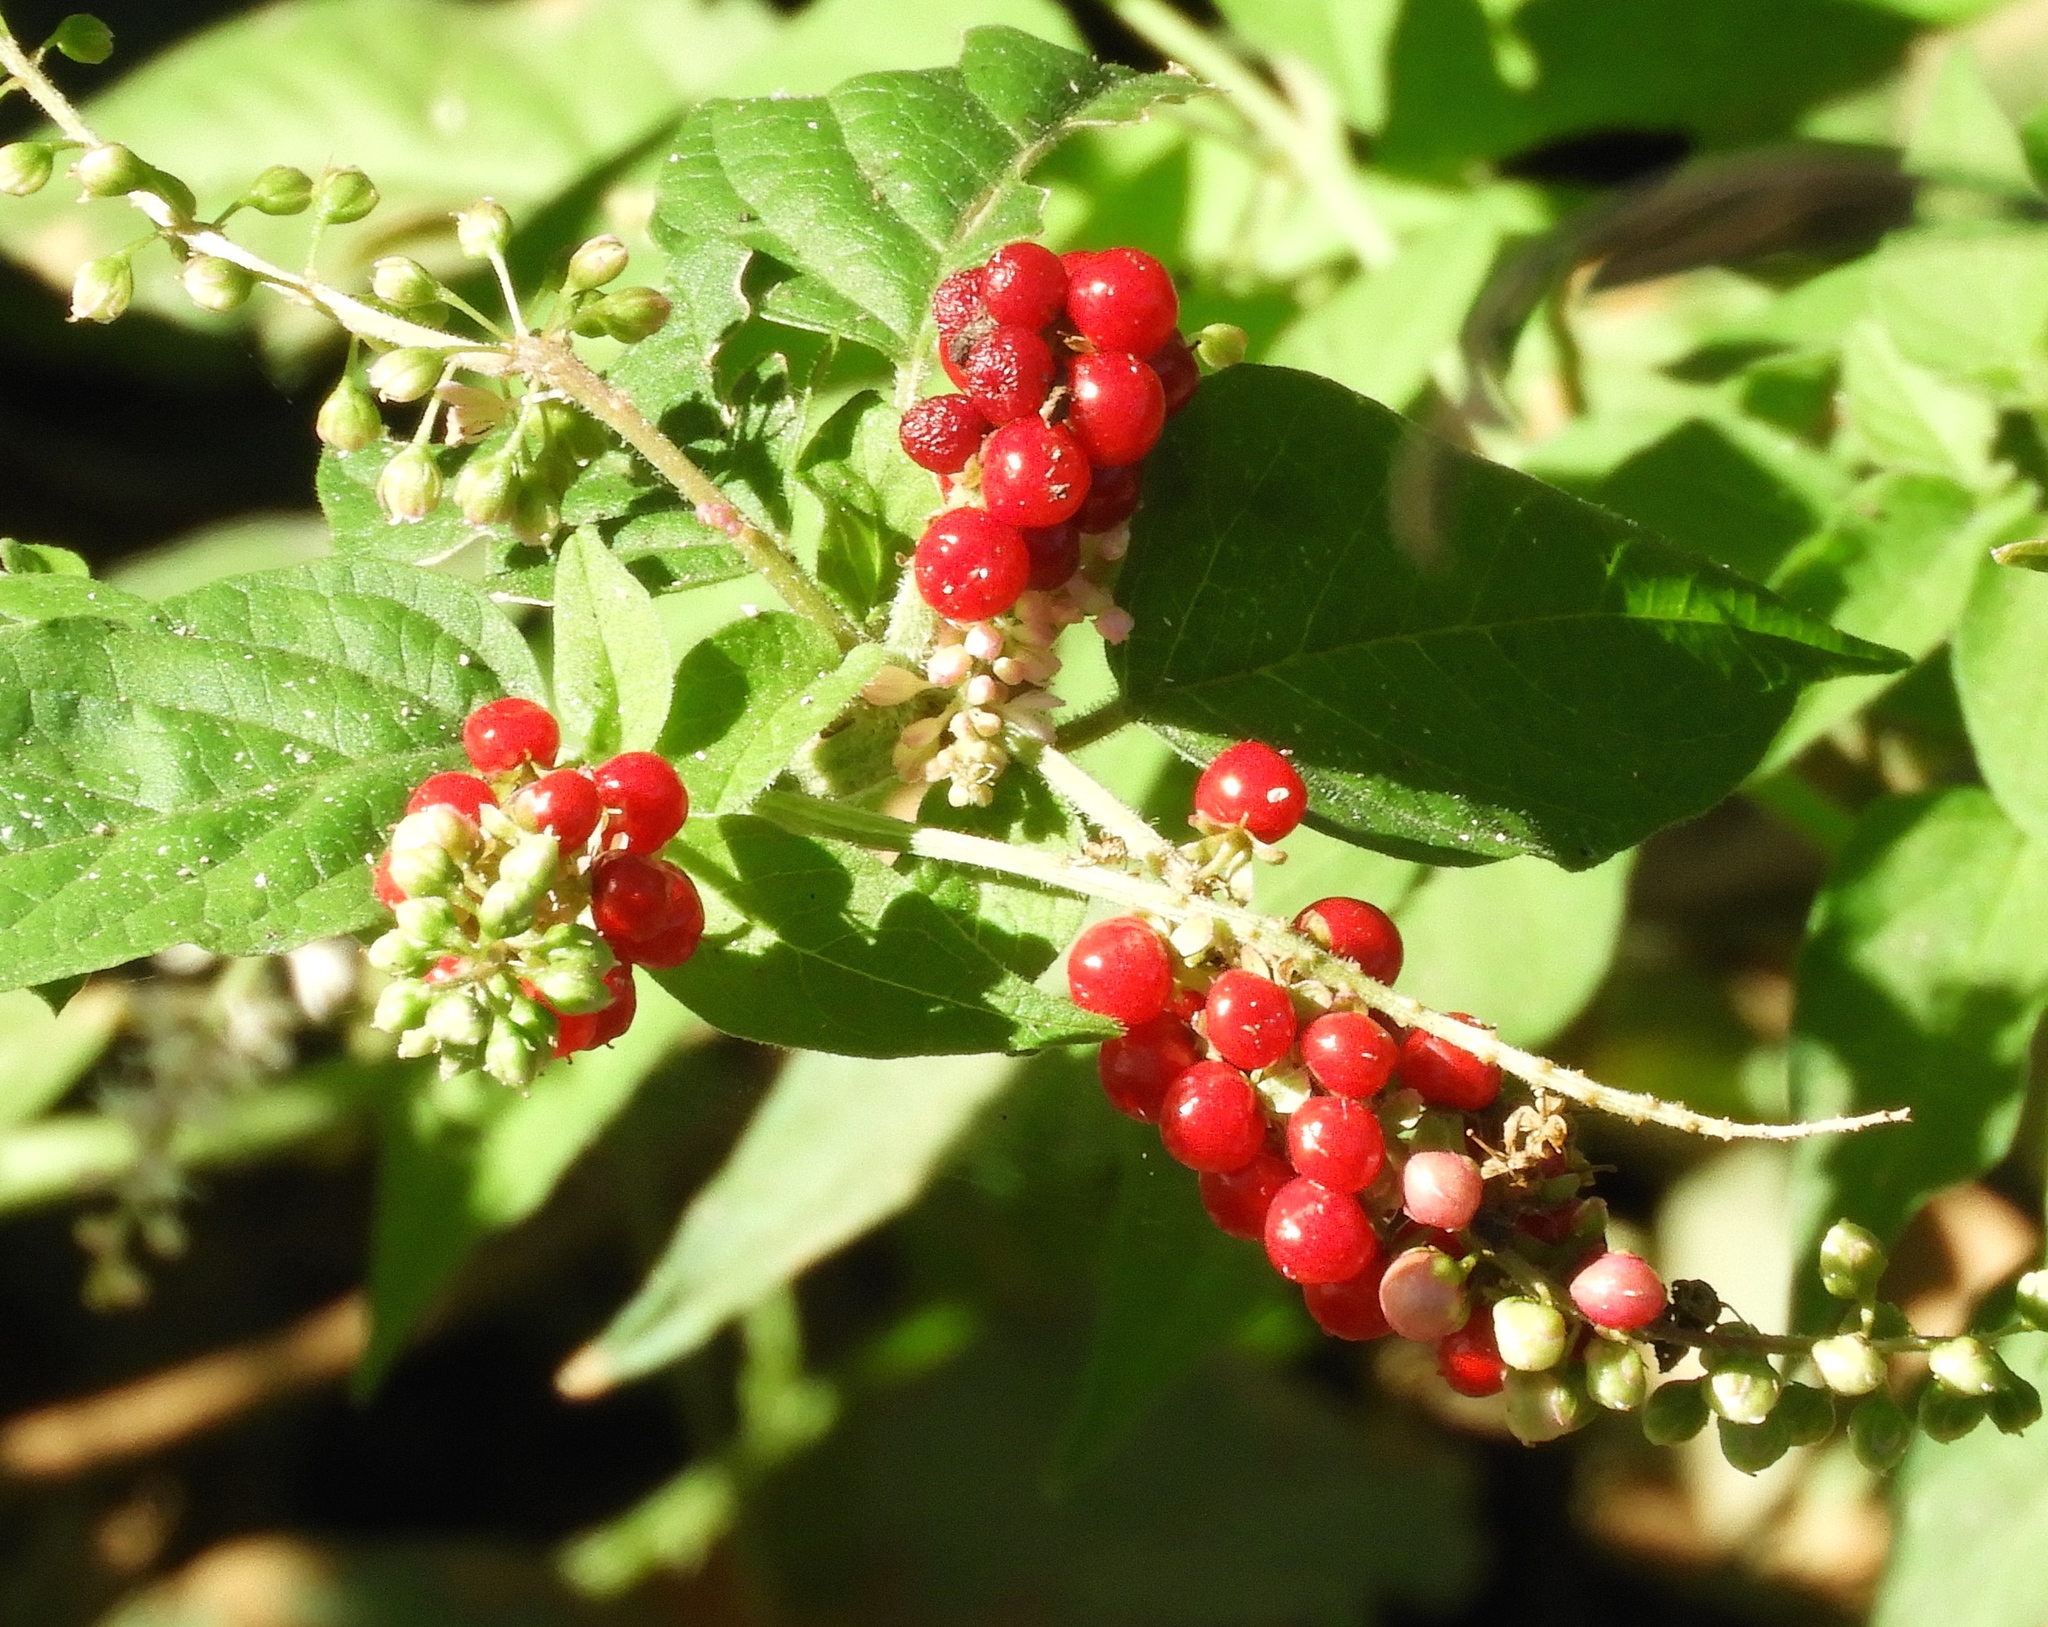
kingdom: Plantae
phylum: Tracheophyta
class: Magnoliopsida
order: Caryophyllales
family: Phytolaccaceae
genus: Rivina
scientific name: Rivina humilis
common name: Rougeplant
